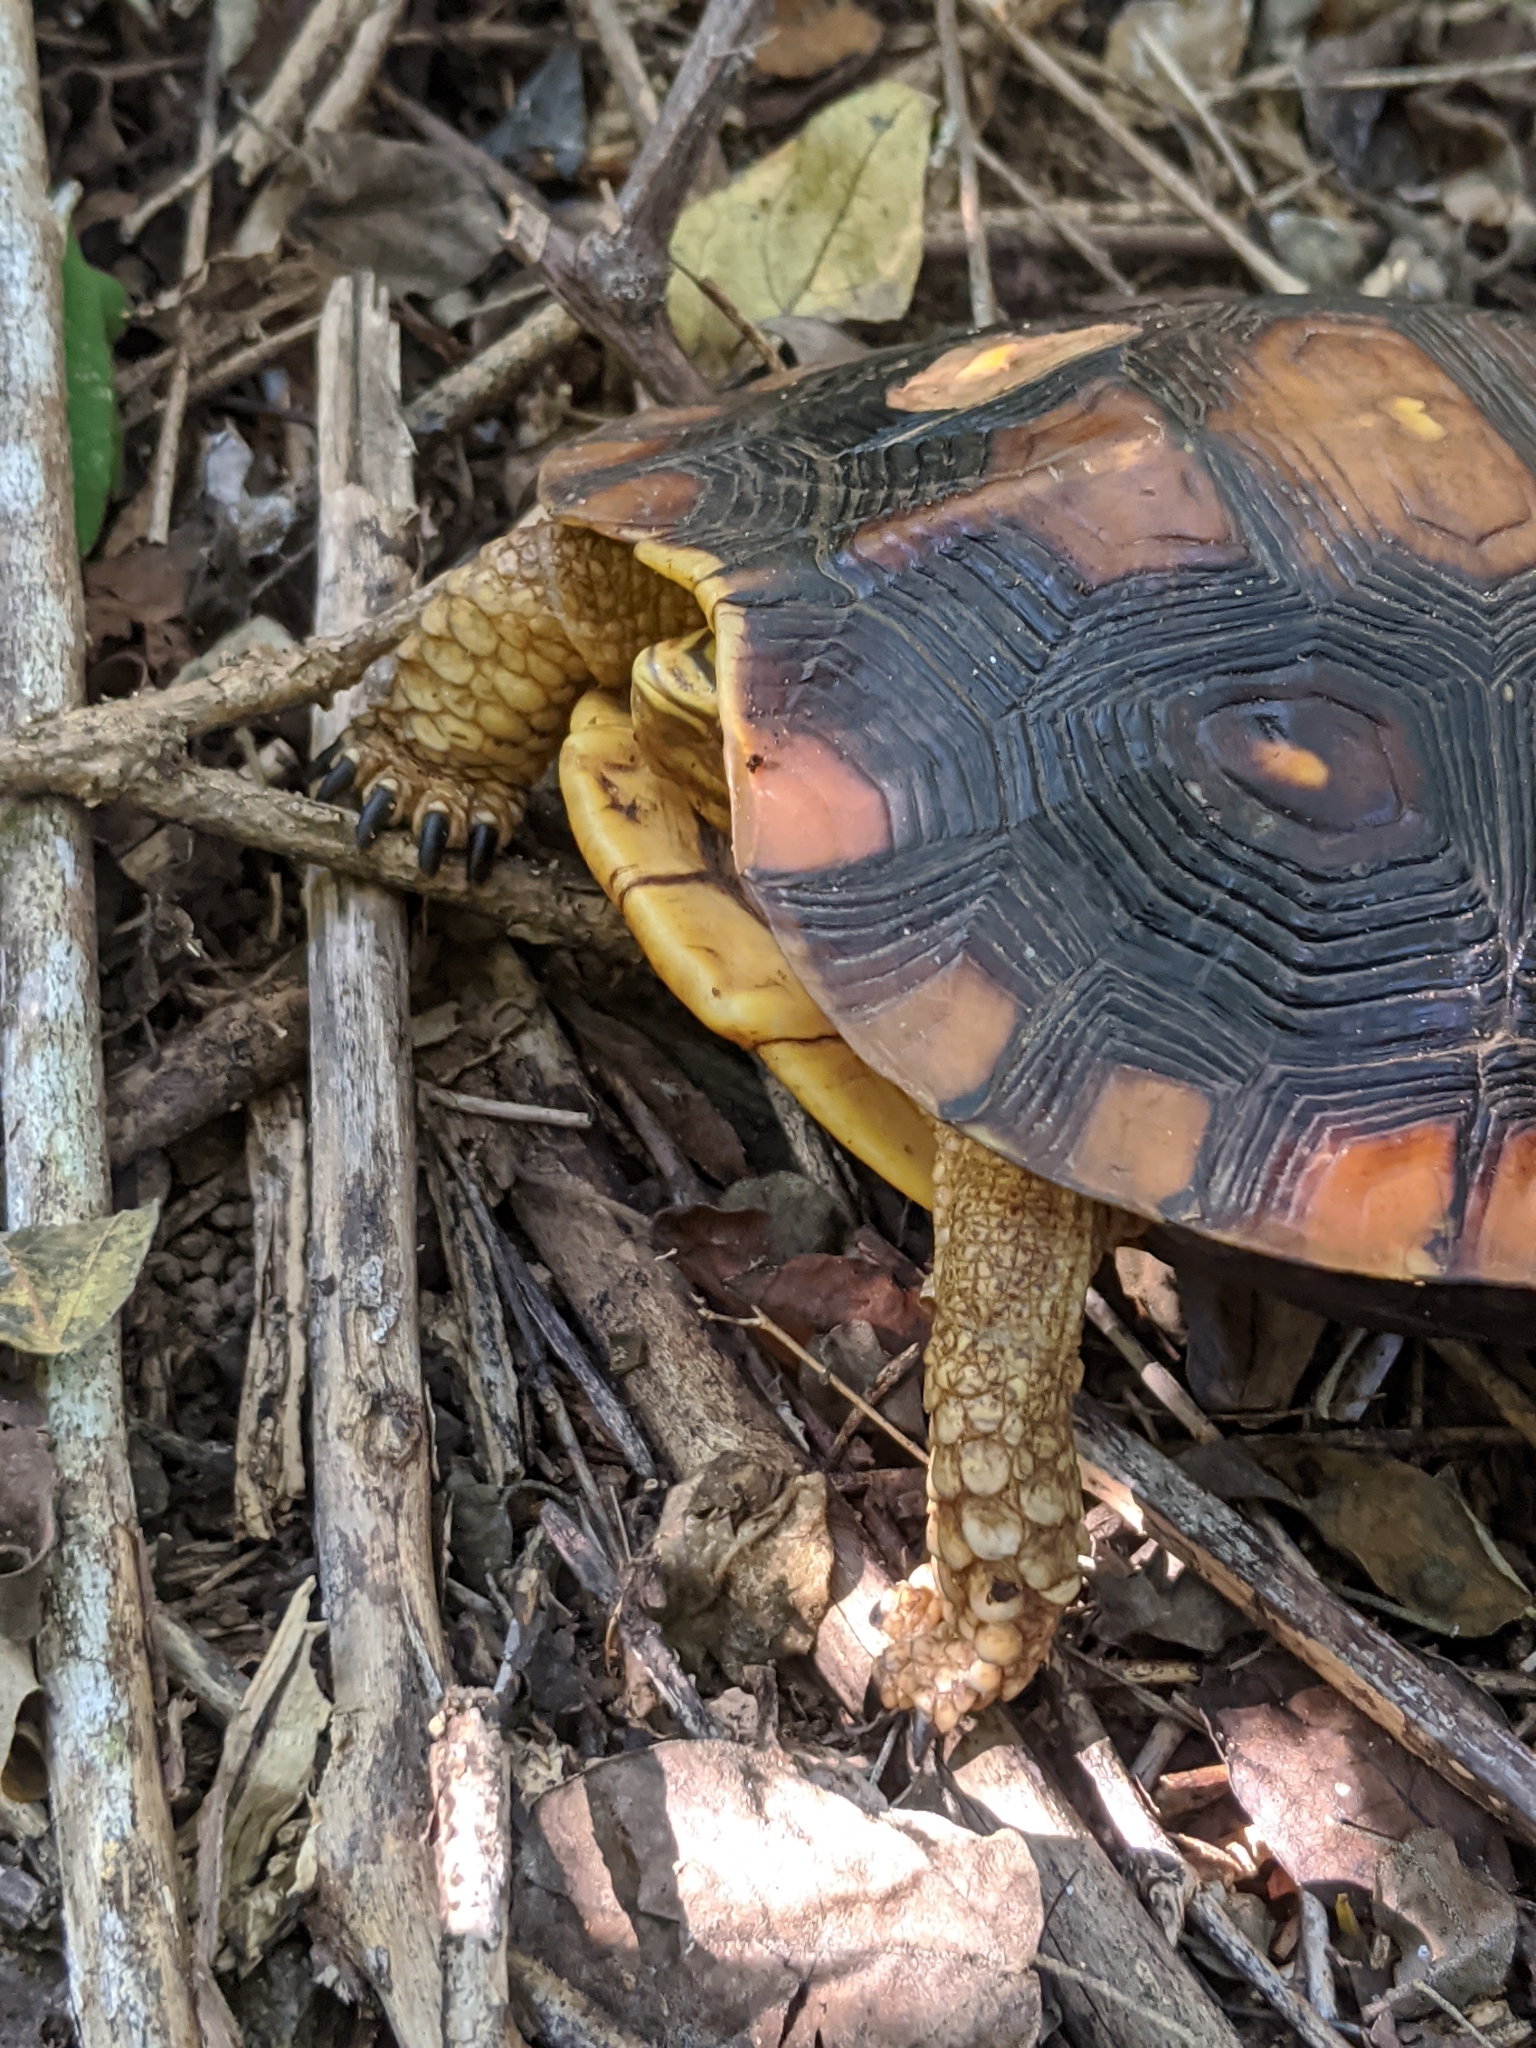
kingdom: Animalia
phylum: Chordata
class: Testudines
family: Geoemydidae
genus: Rhinoclemmys
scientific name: Rhinoclemmys rubida
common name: Mexican spotted wood turtle
